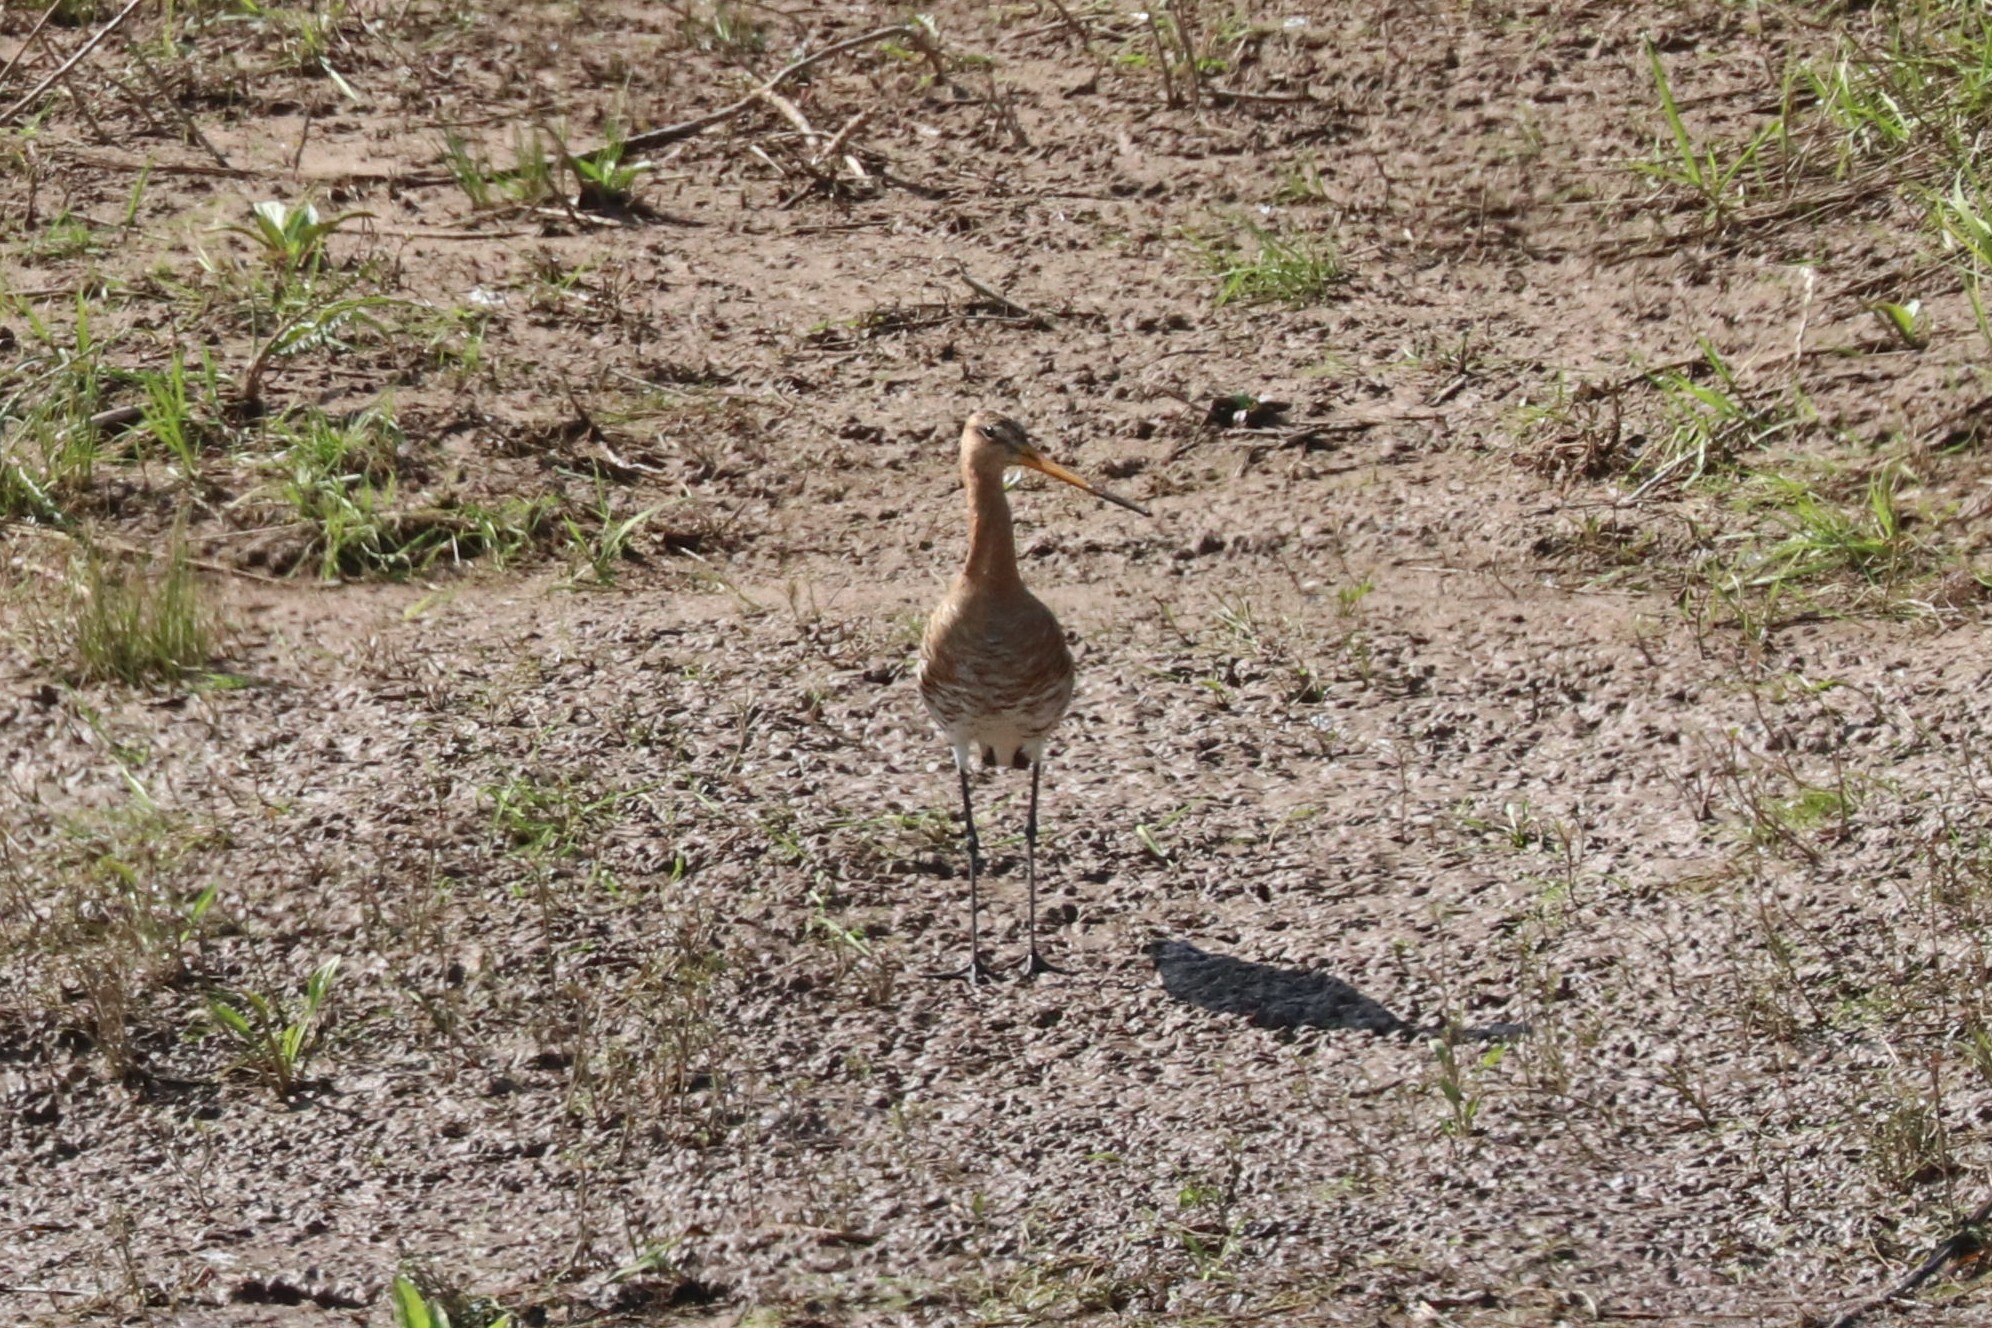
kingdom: Animalia
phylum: Chordata
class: Aves
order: Charadriiformes
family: Scolopacidae
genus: Limosa
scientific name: Limosa limosa
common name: Black-tailed godwit
